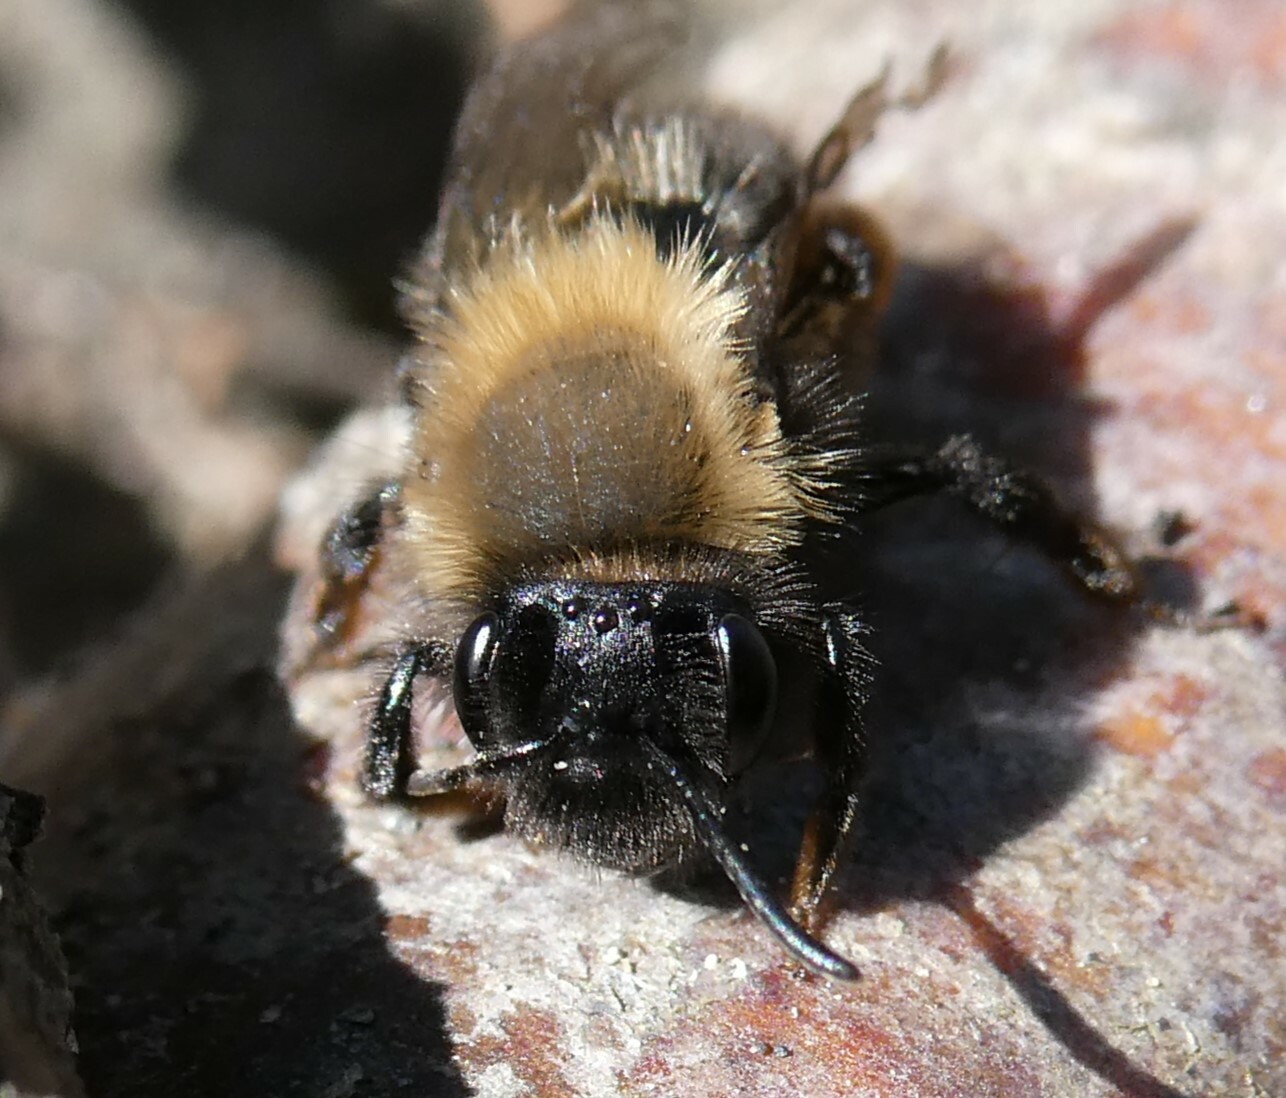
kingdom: Animalia
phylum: Arthropoda
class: Insecta
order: Hymenoptera
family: Andrenidae
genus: Andrena
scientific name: Andrena clarkella
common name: Clarke's mining bee
